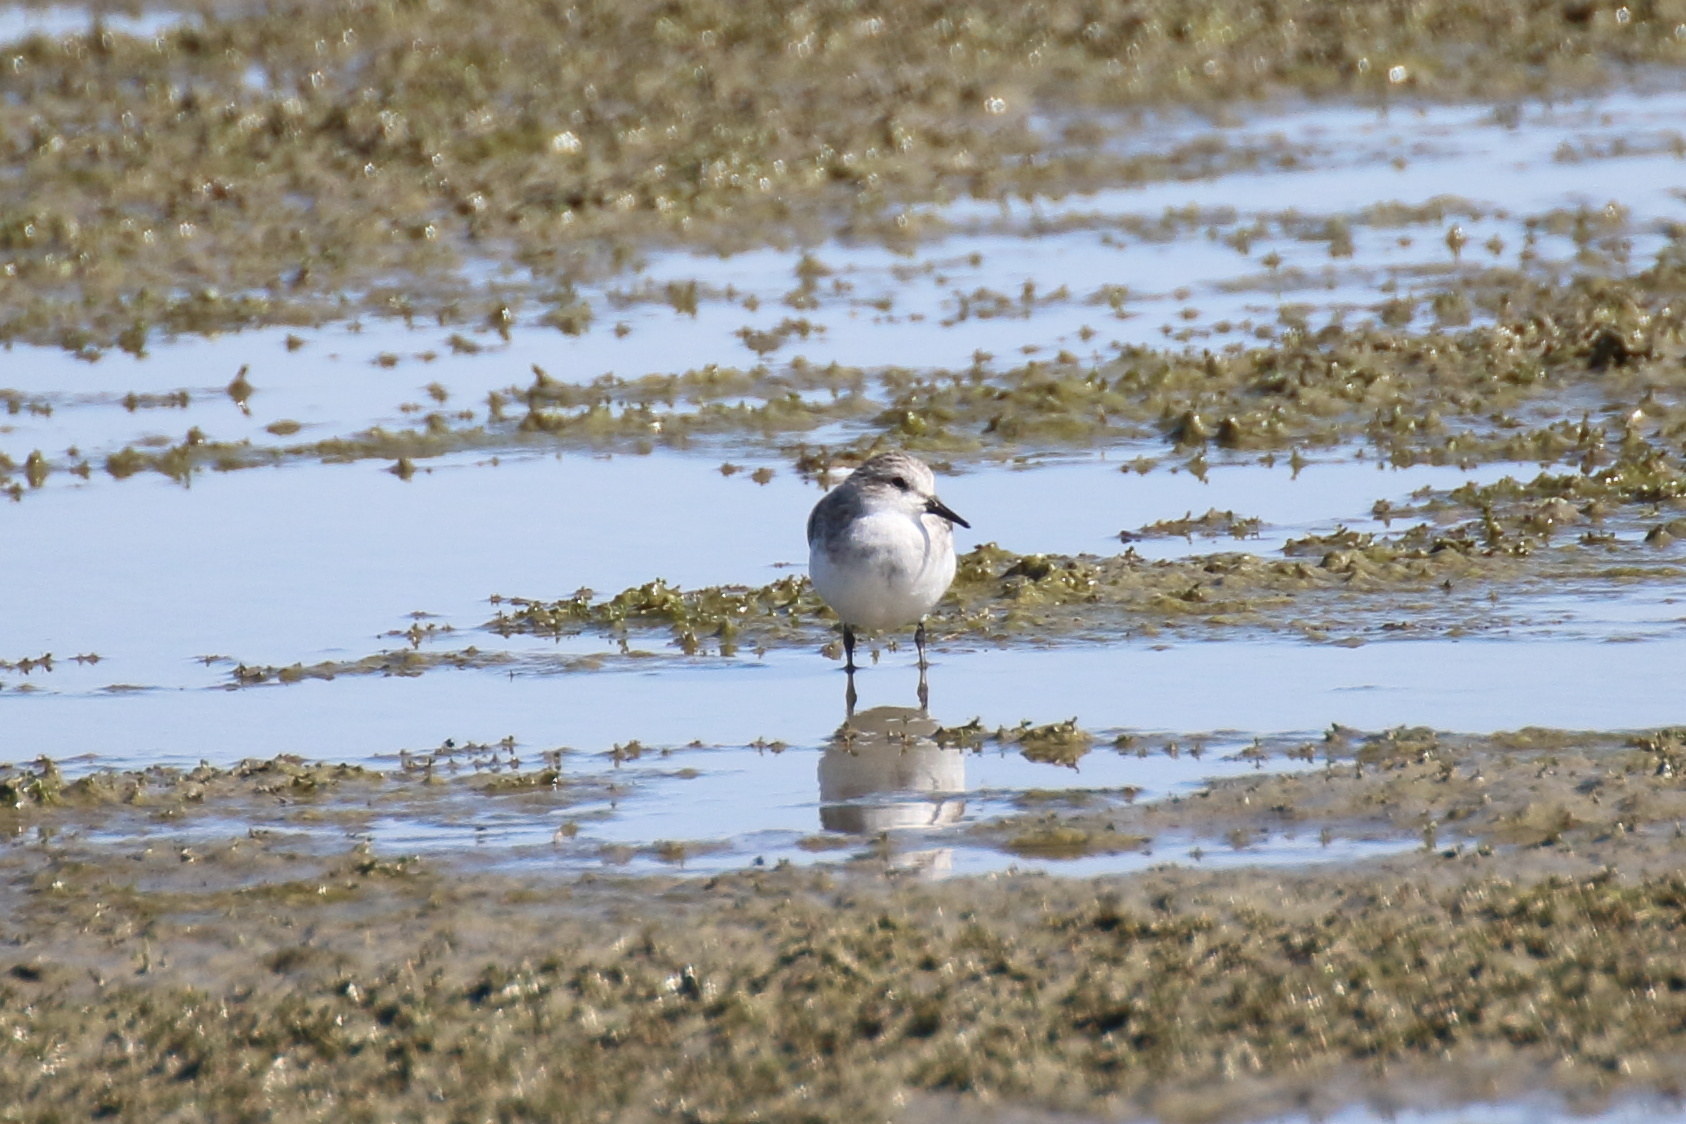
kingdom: Animalia
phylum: Chordata
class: Aves
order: Charadriiformes
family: Scolopacidae
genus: Calidris
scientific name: Calidris ruficollis
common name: Red-necked stint
